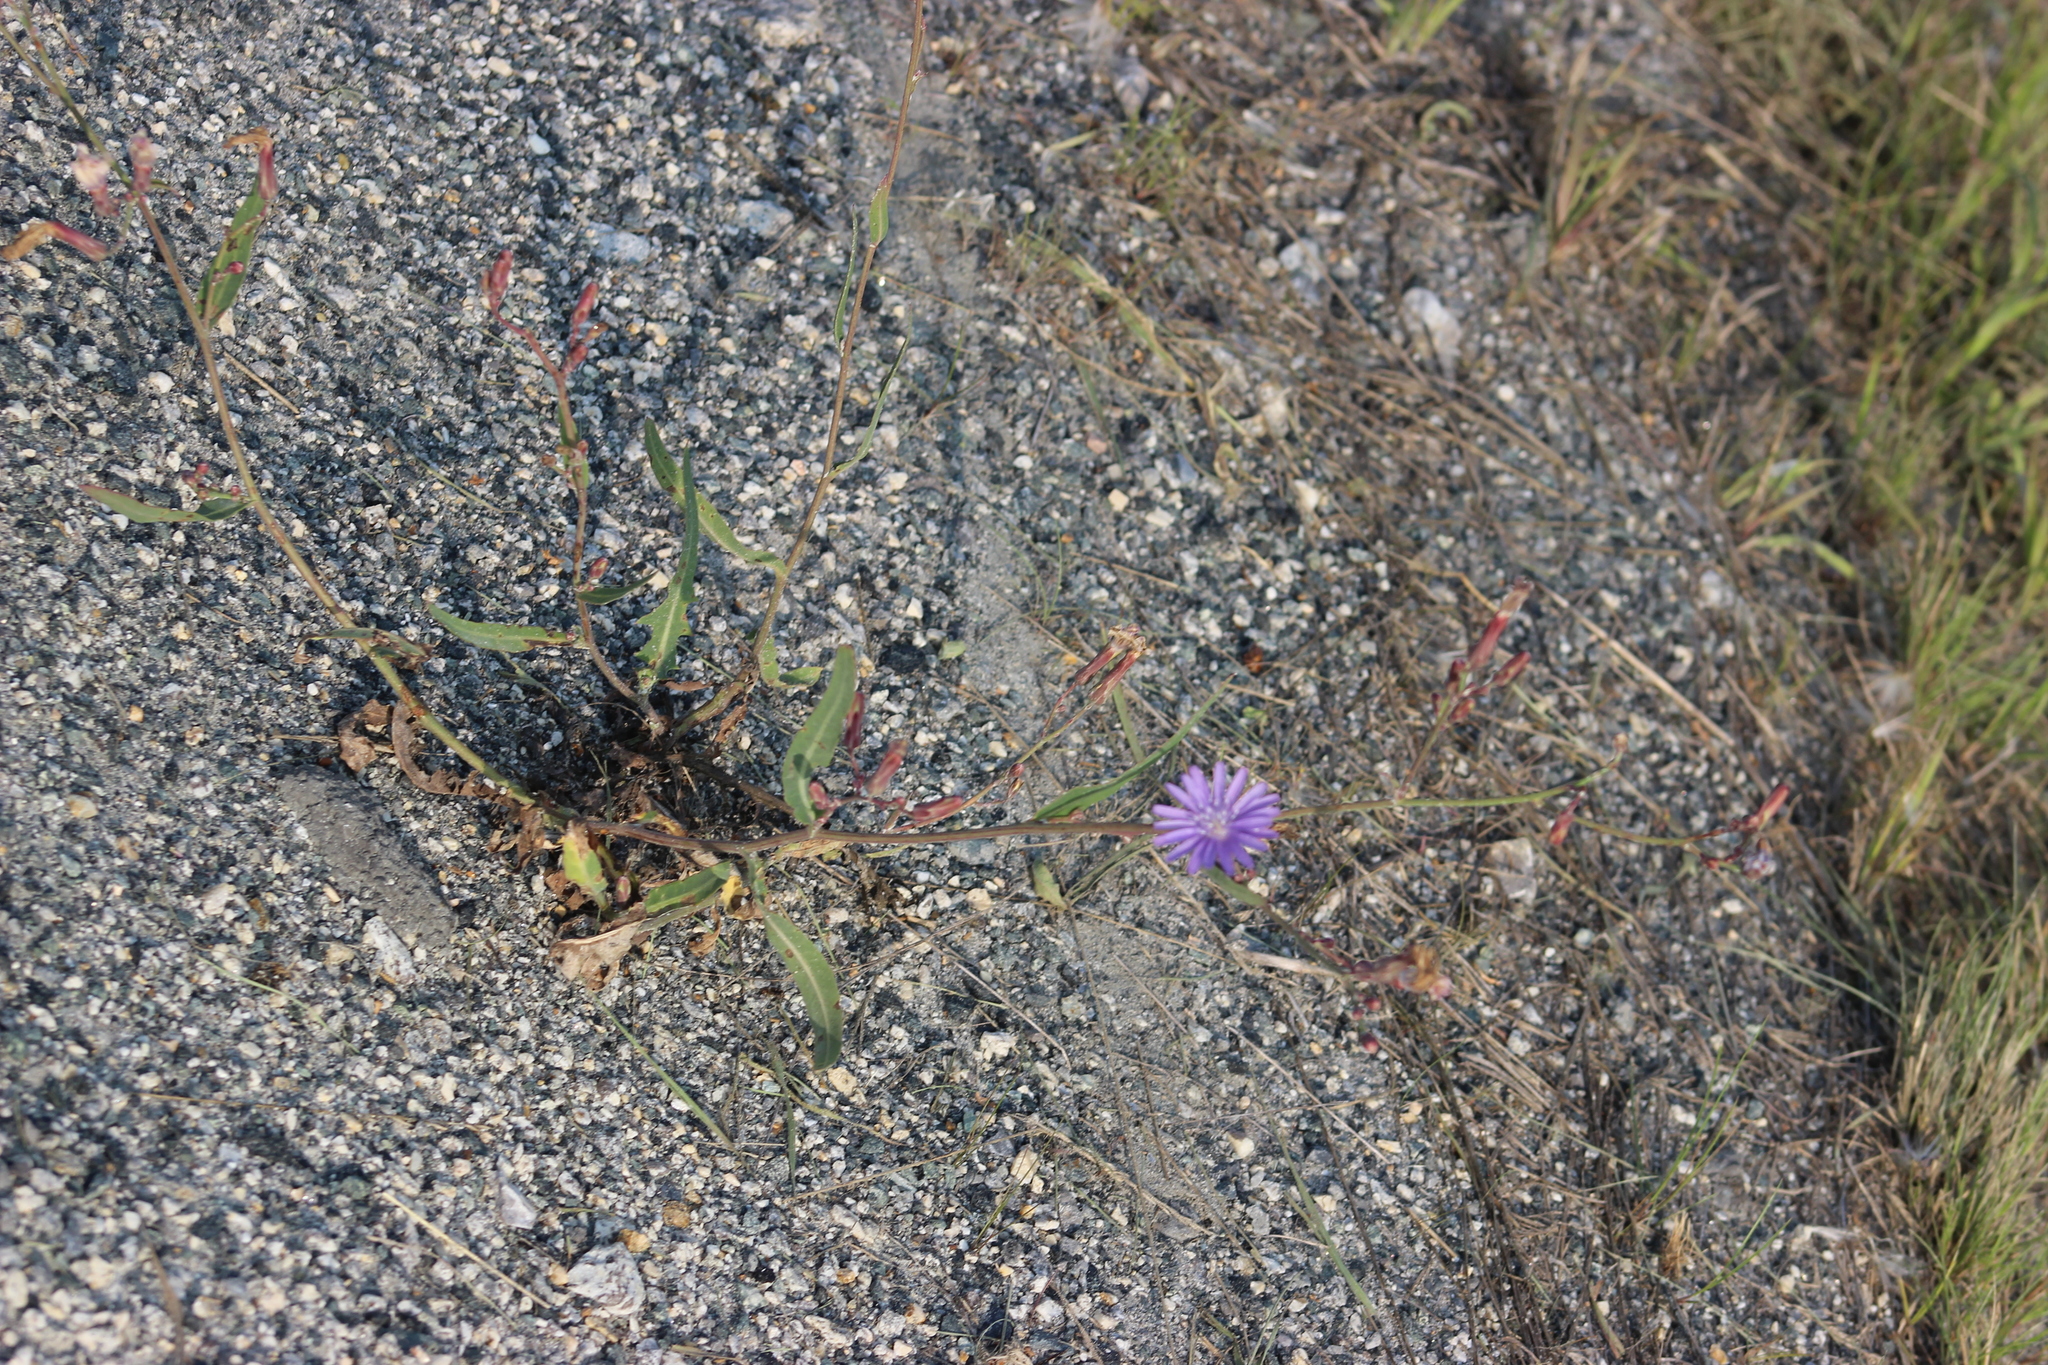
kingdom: Plantae
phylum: Tracheophyta
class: Magnoliopsida
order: Asterales
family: Asteraceae
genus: Lactuca
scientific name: Lactuca tatarica
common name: Blue lettuce
